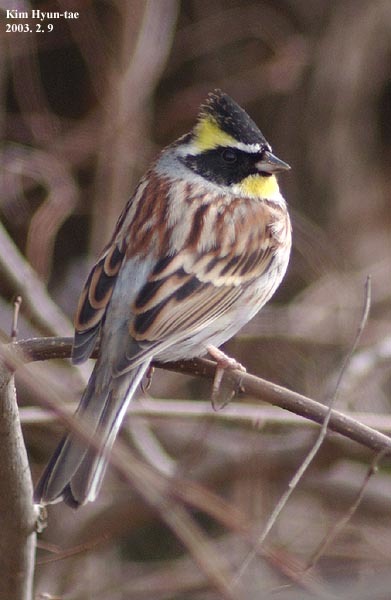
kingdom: Animalia
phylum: Chordata
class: Aves
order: Passeriformes
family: Emberizidae
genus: Emberiza
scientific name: Emberiza elegans
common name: Yellow-throated bunting
